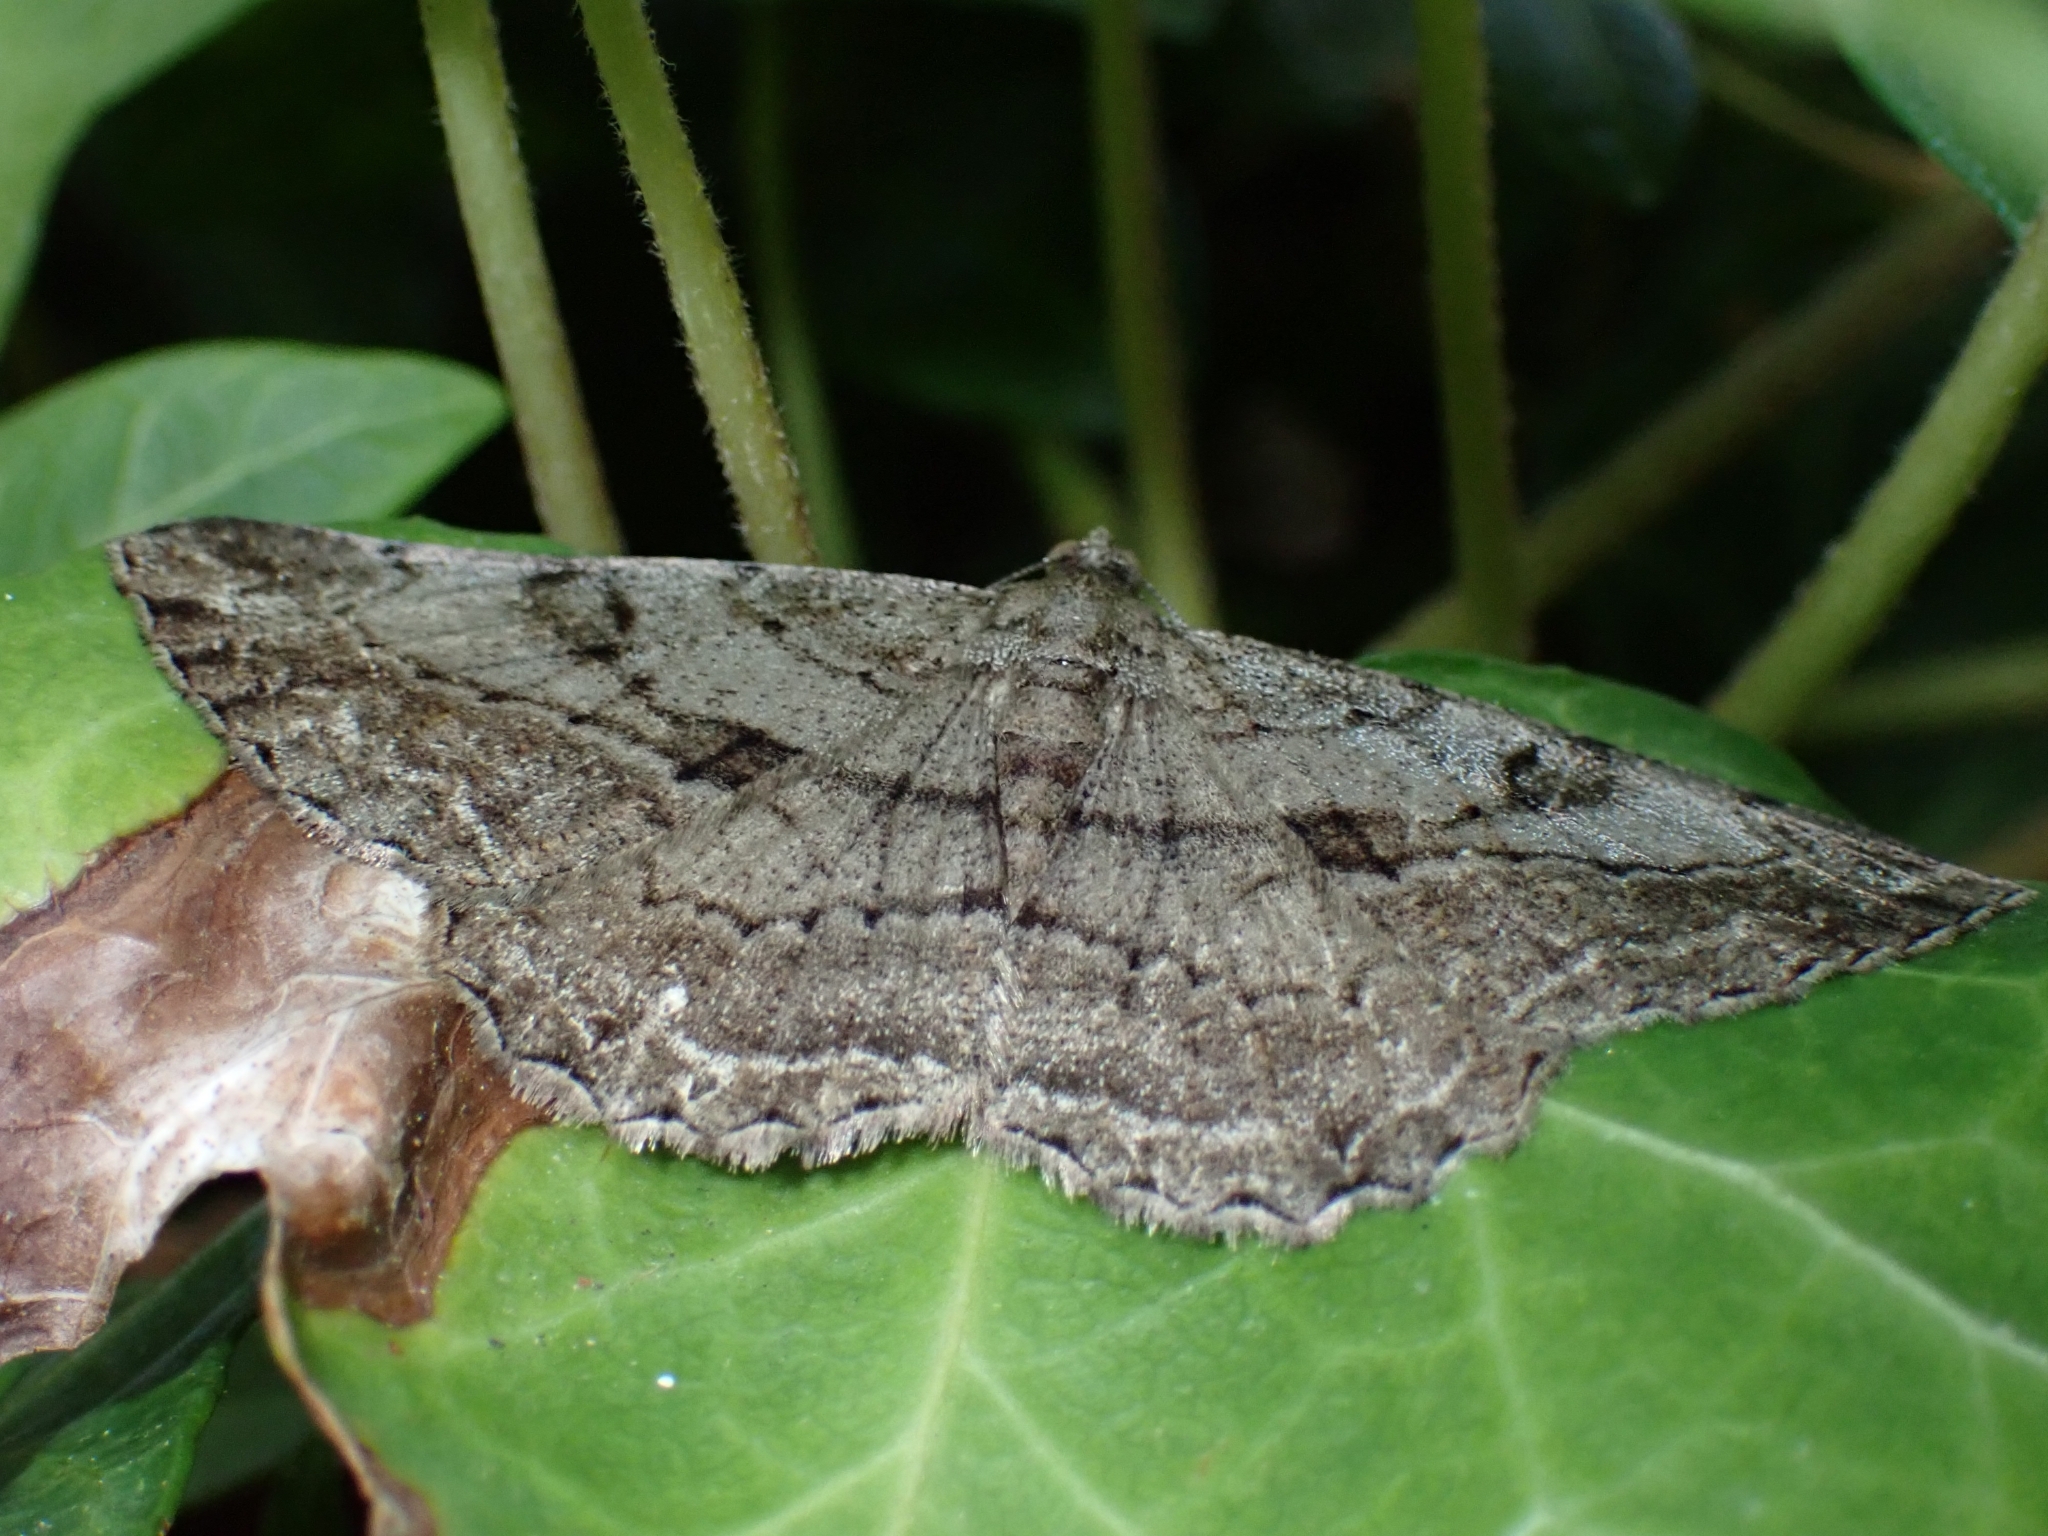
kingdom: Animalia
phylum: Arthropoda
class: Insecta
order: Lepidoptera
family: Geometridae
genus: Peribatodes
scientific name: Peribatodes rhomboidaria
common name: Willow beauty
